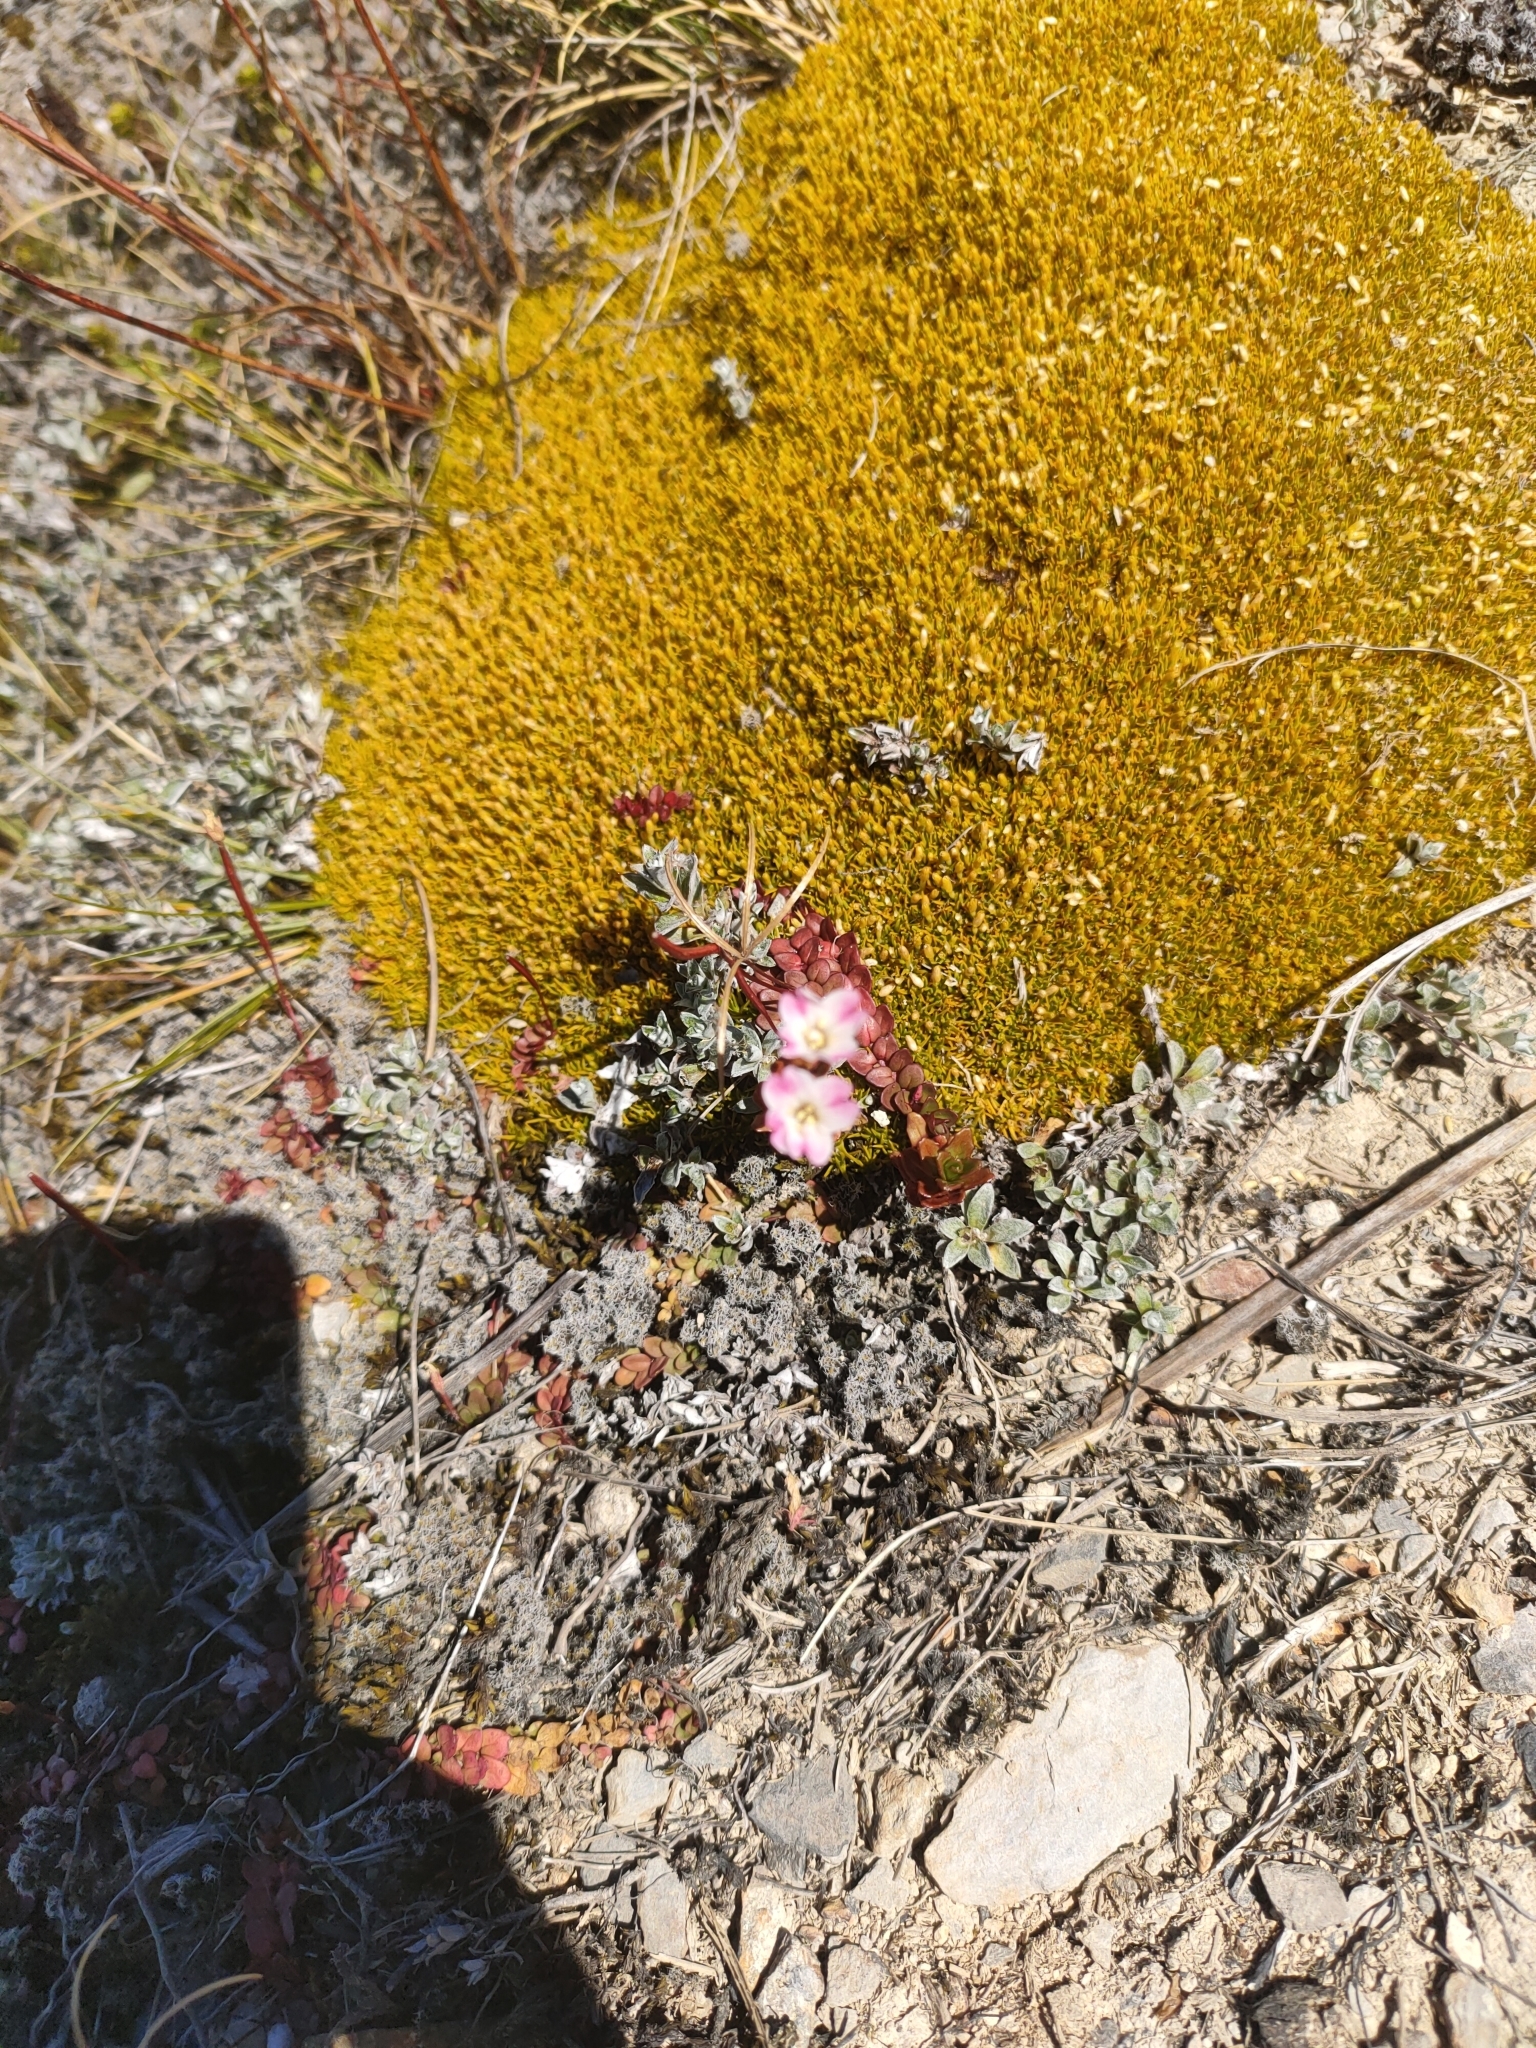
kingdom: Plantae
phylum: Tracheophyta
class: Magnoliopsida
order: Caryophyllales
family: Caryophyllaceae
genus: Scleranthus
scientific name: Scleranthus uniflorus
